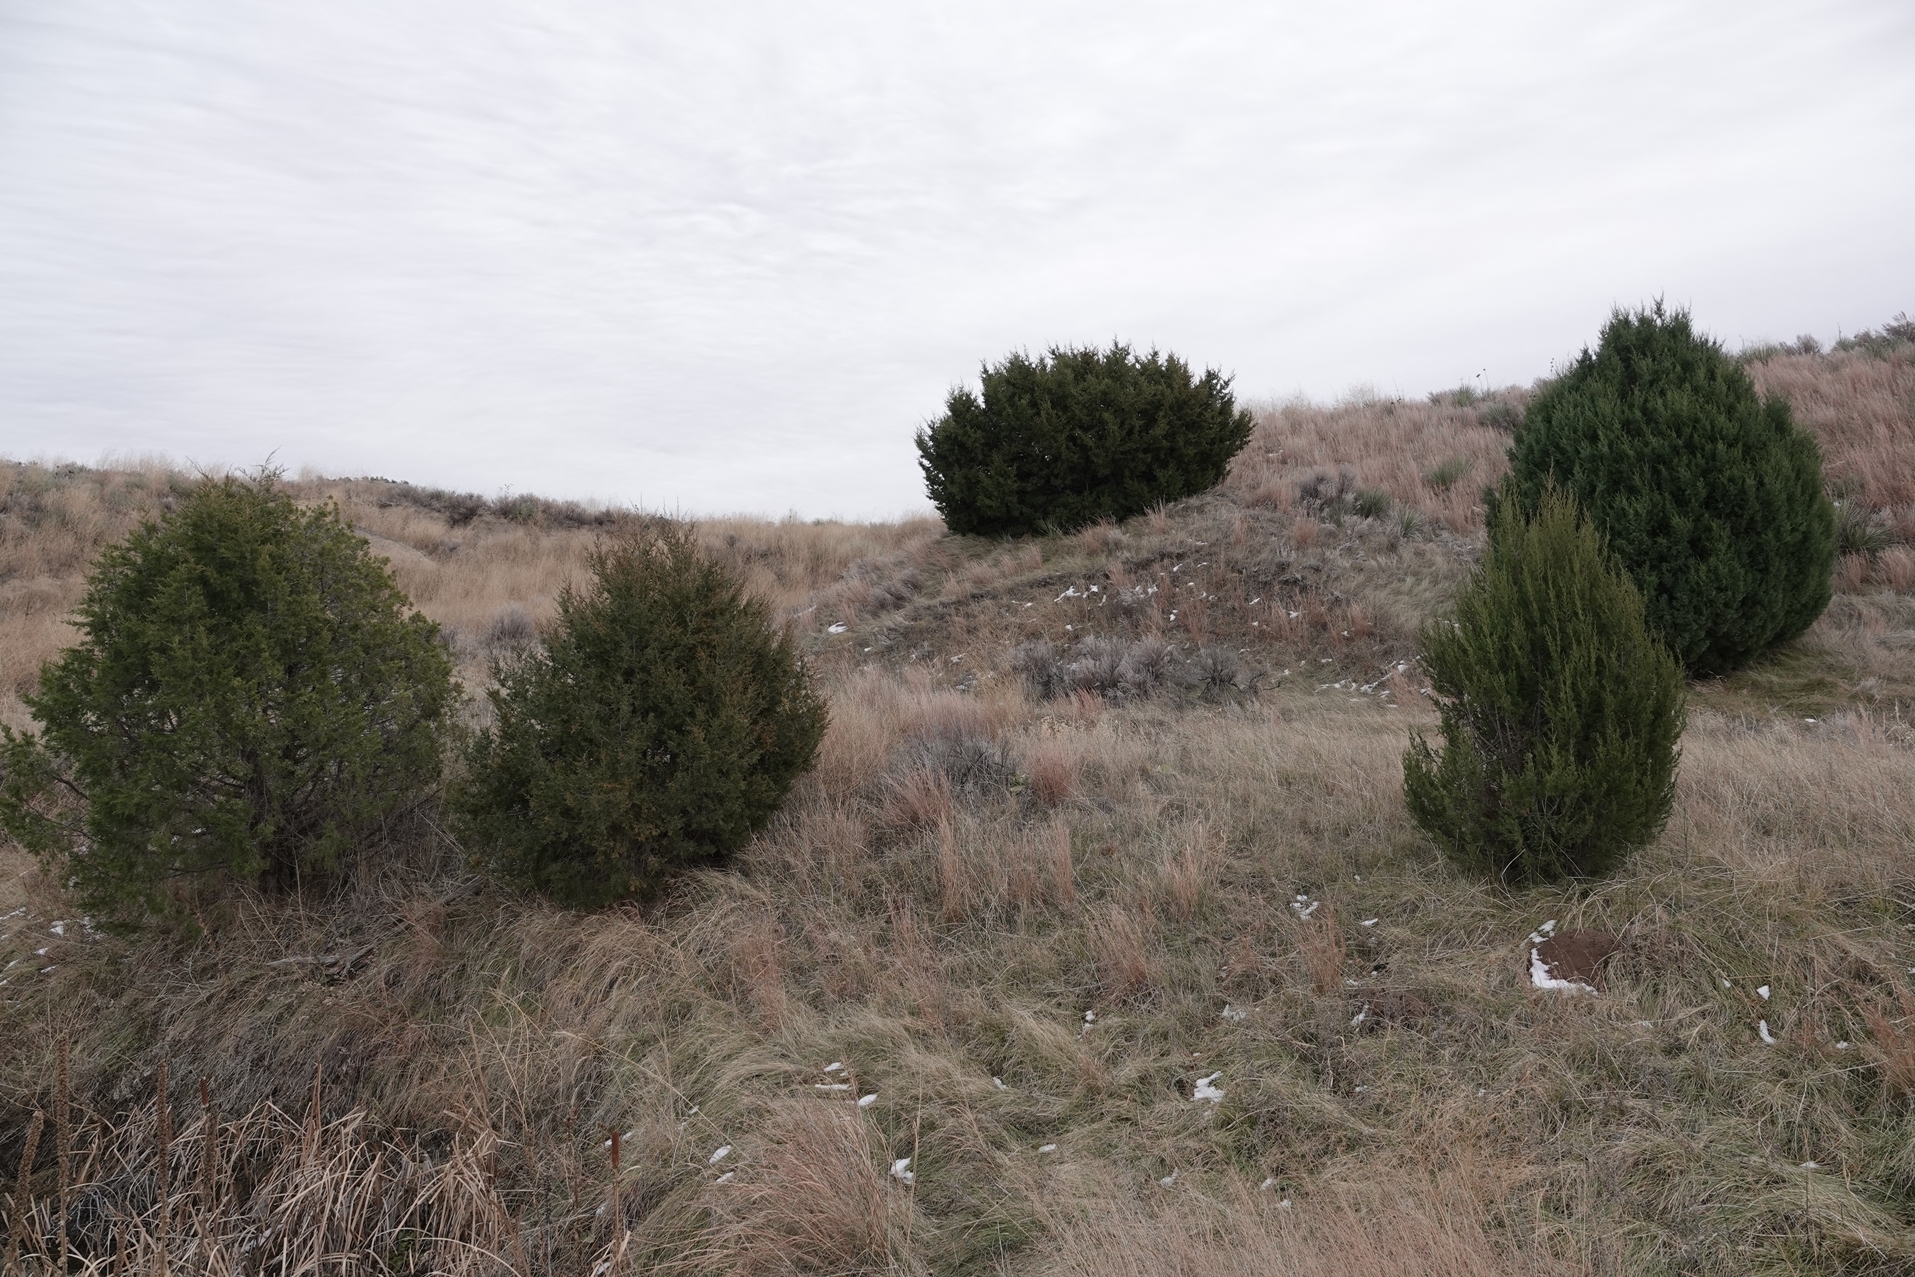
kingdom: Plantae
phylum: Tracheophyta
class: Pinopsida
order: Pinales
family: Cupressaceae
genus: Juniperus
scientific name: Juniperus scopulorum
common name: Rocky mountain juniper
